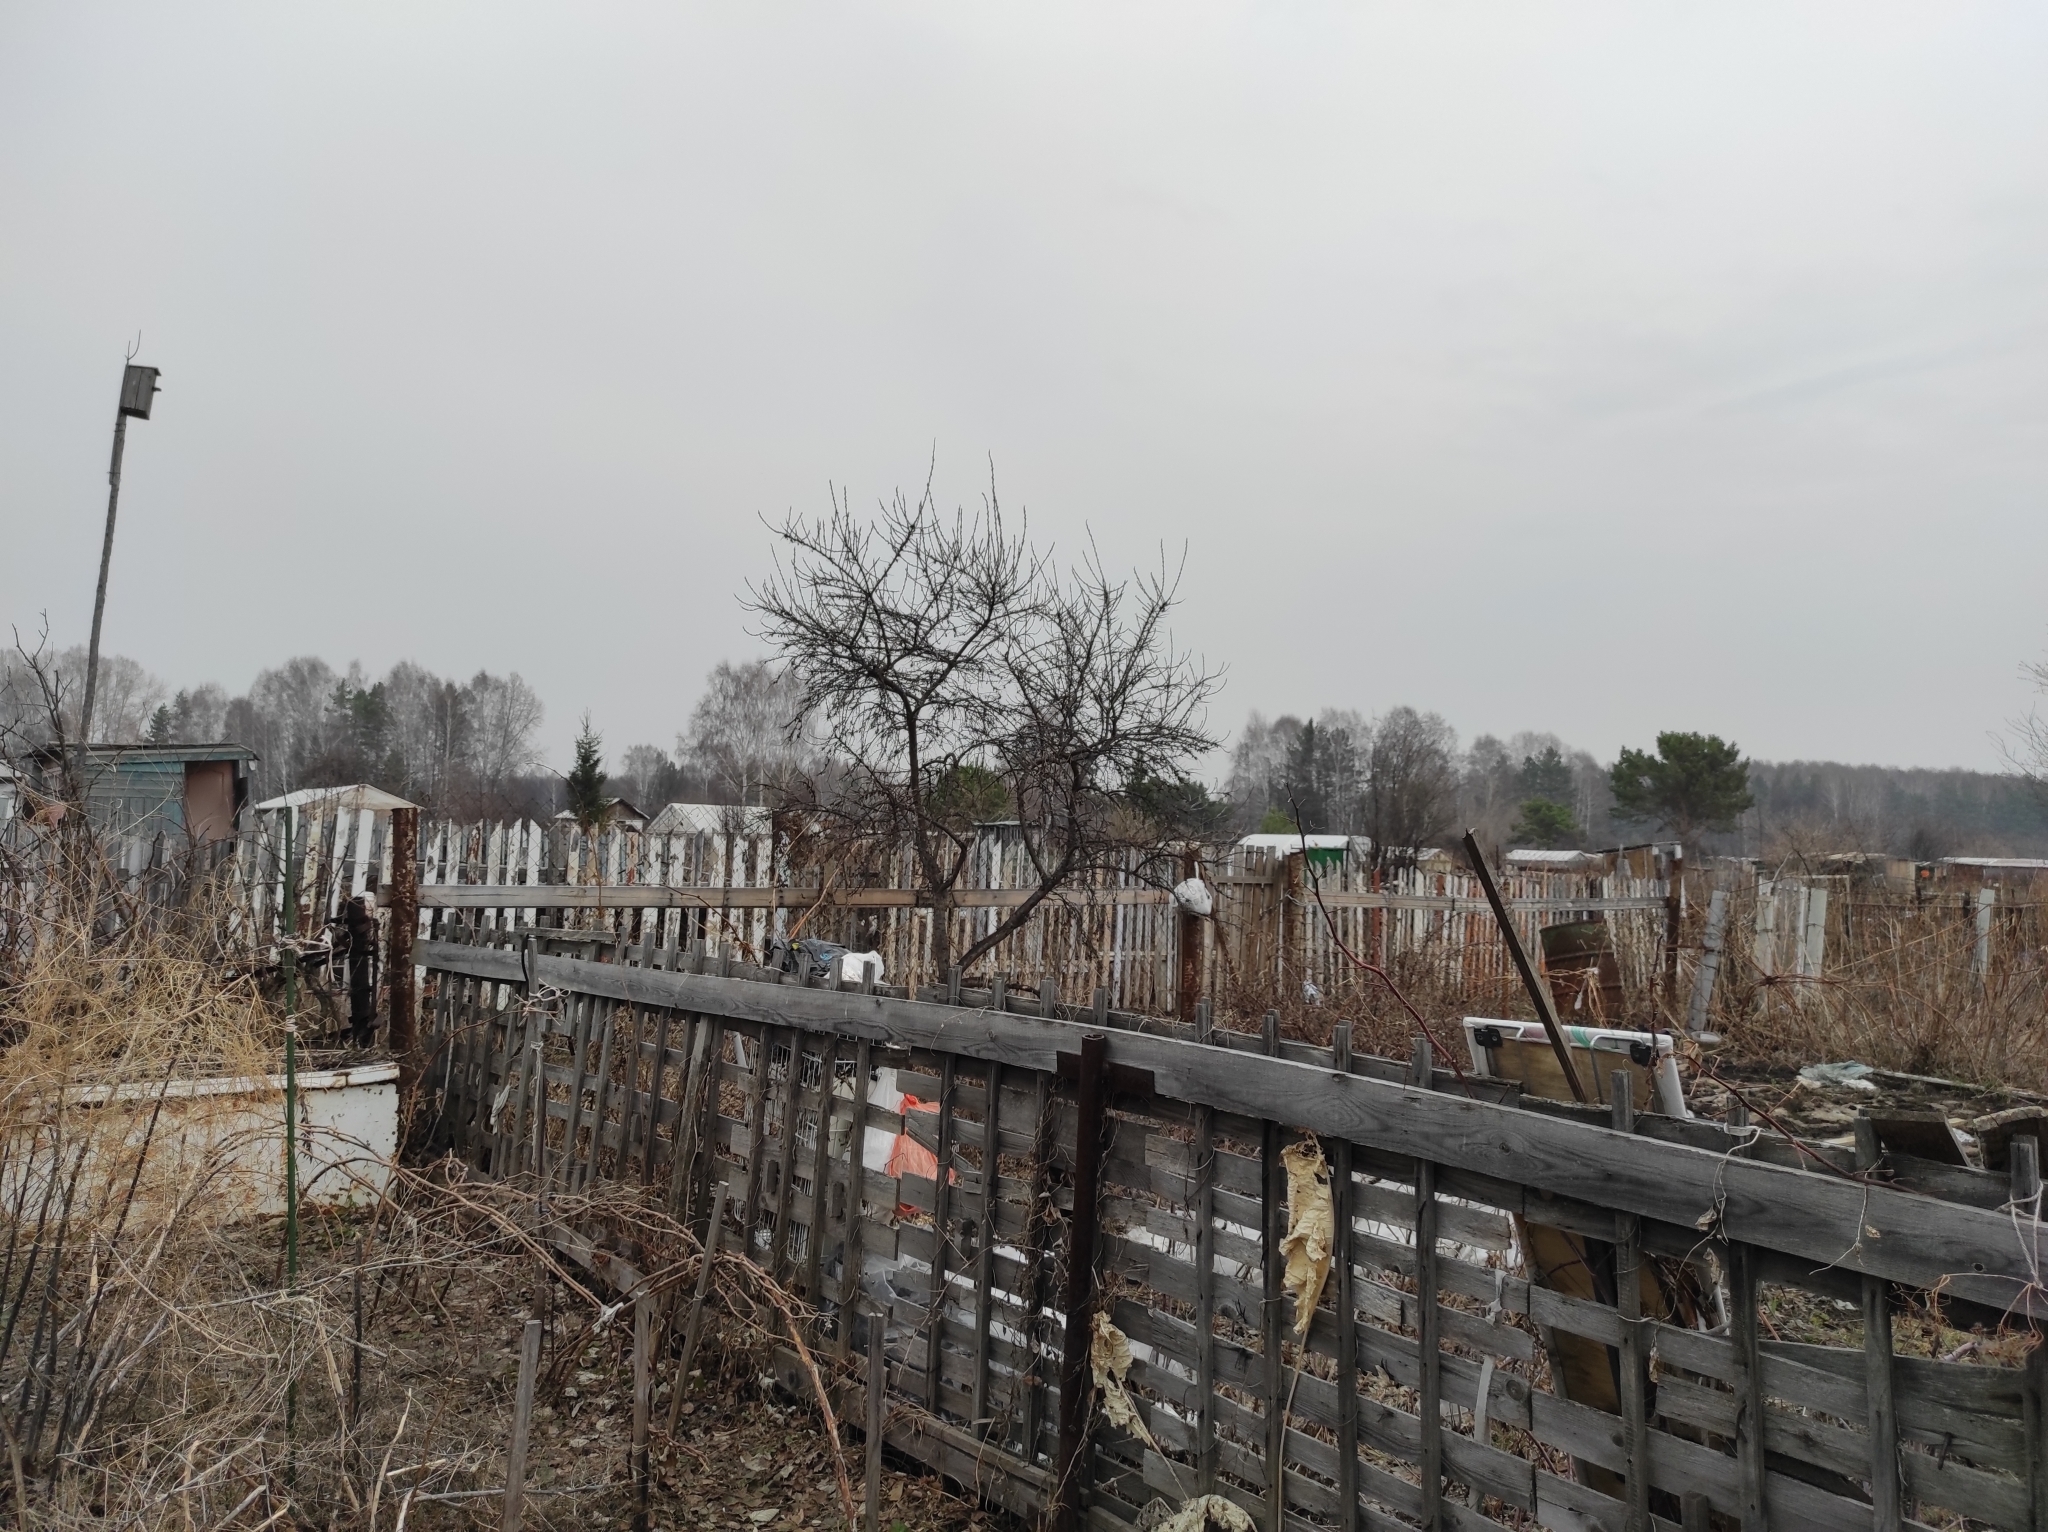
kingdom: Animalia
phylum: Chordata
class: Aves
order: Passeriformes
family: Paridae
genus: Parus
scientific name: Parus major
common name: Great tit
